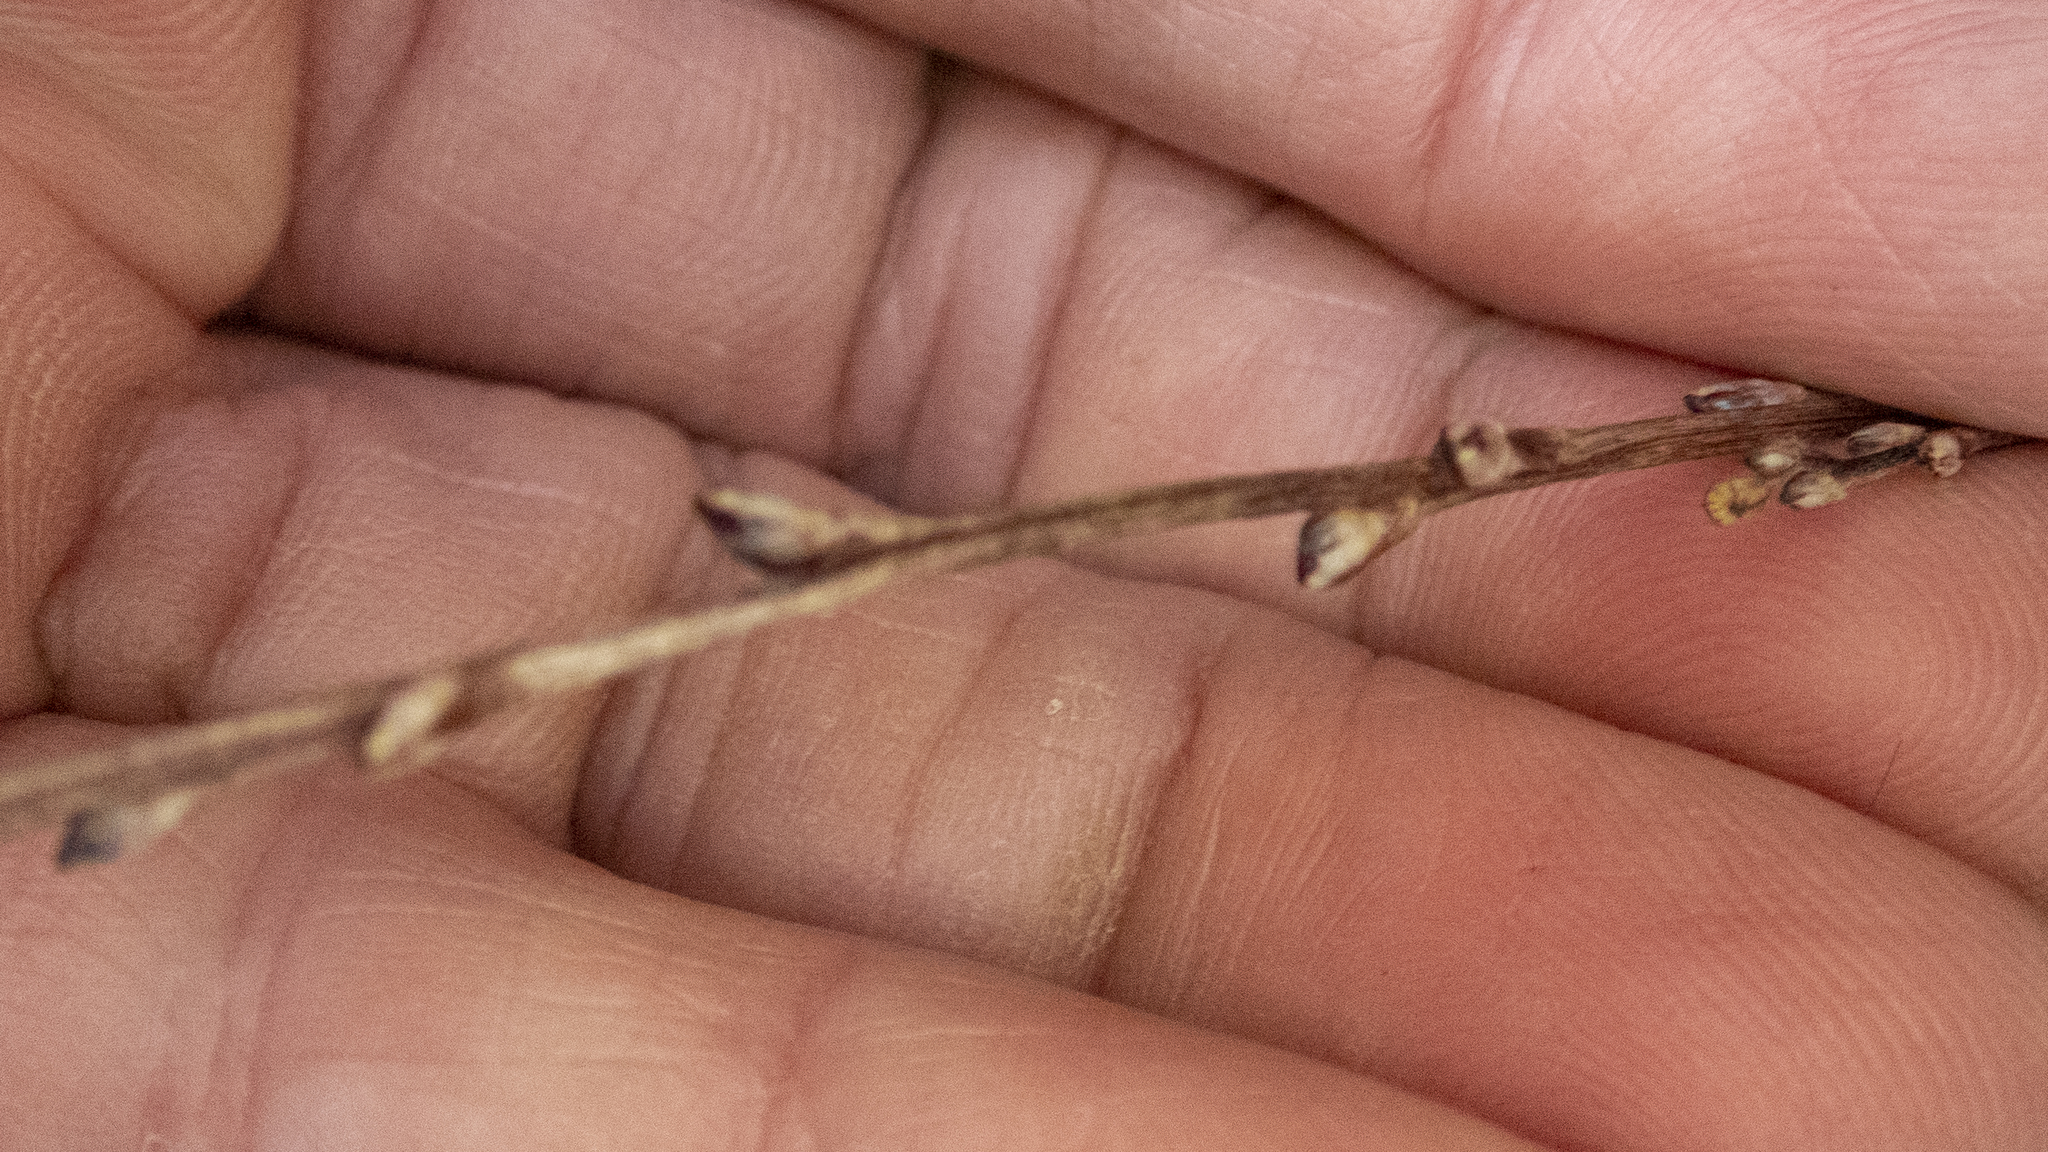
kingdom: Plantae
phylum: Tracheophyta
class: Magnoliopsida
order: Lamiales
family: Orobanchaceae
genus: Epifagus
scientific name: Epifagus virginiana
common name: Beechdrops
